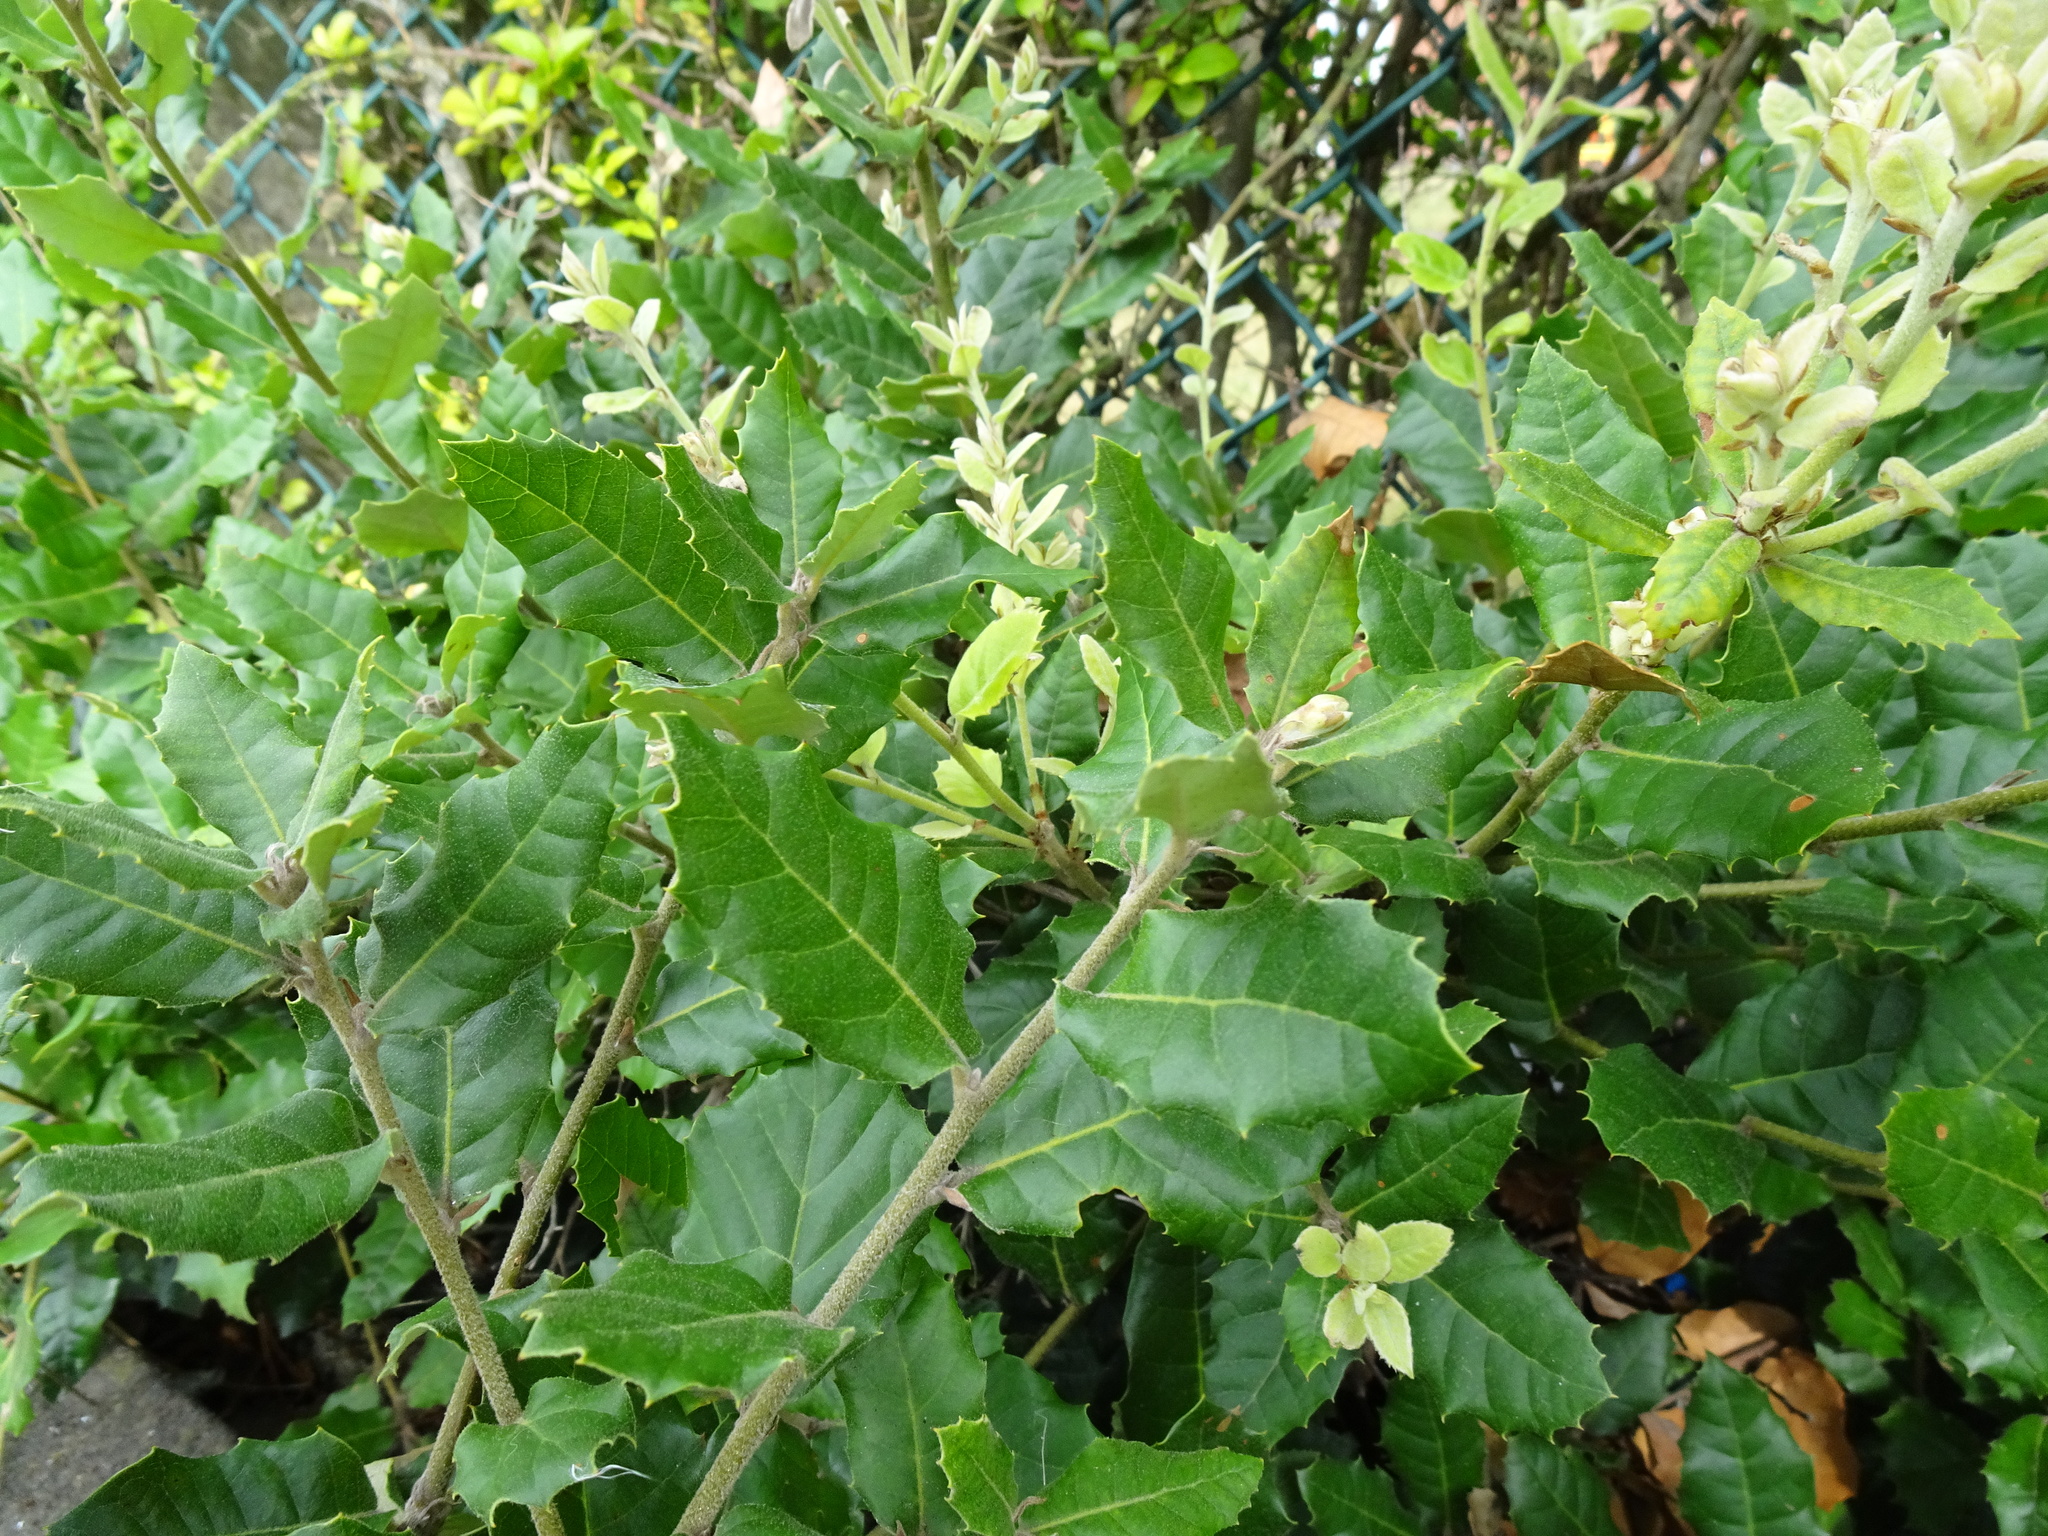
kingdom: Plantae
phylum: Tracheophyta
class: Magnoliopsida
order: Fagales
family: Fagaceae
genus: Quercus
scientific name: Quercus ilex
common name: Evergreen oak
